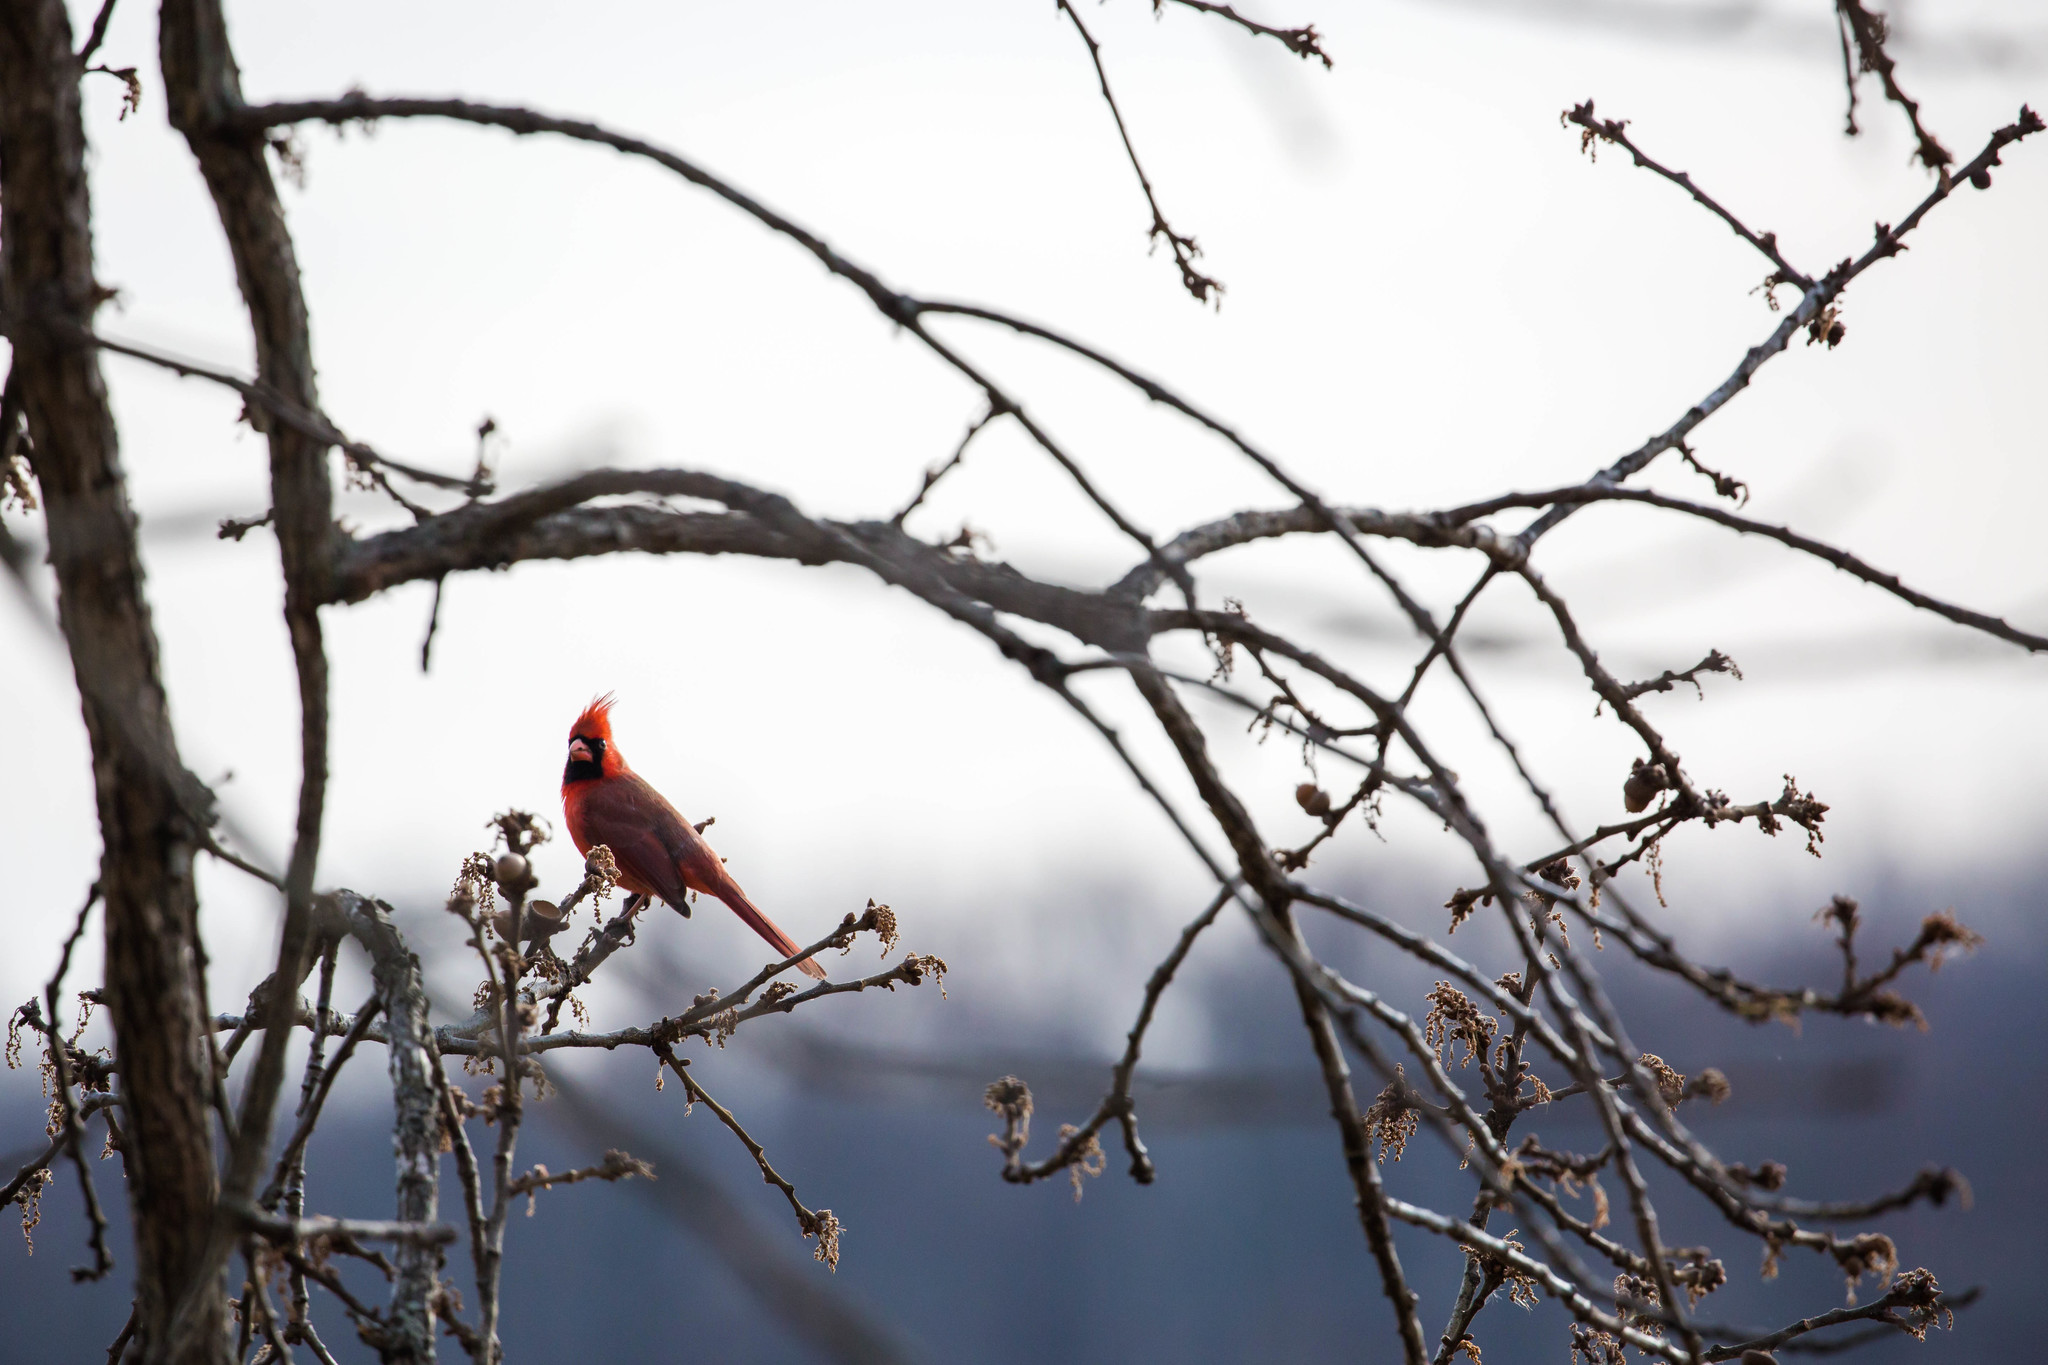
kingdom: Animalia
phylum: Chordata
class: Aves
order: Passeriformes
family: Cardinalidae
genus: Cardinalis
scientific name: Cardinalis cardinalis
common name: Northern cardinal
